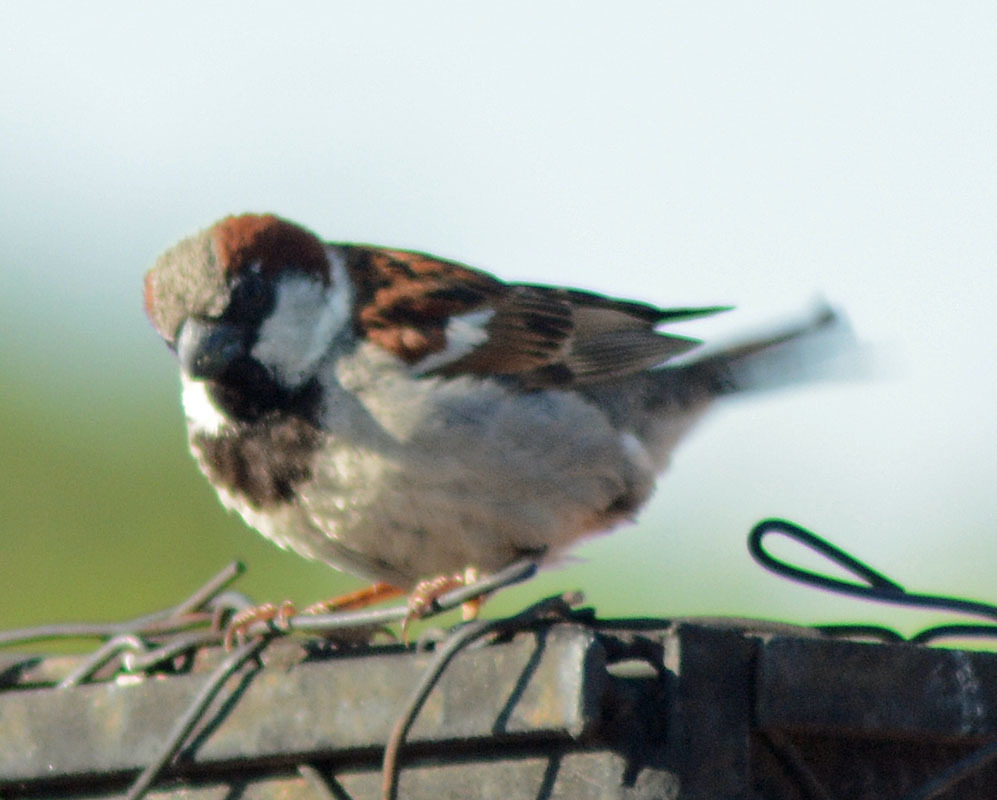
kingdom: Animalia
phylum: Chordata
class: Aves
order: Passeriformes
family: Passeridae
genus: Passer
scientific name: Passer domesticus
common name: House sparrow
